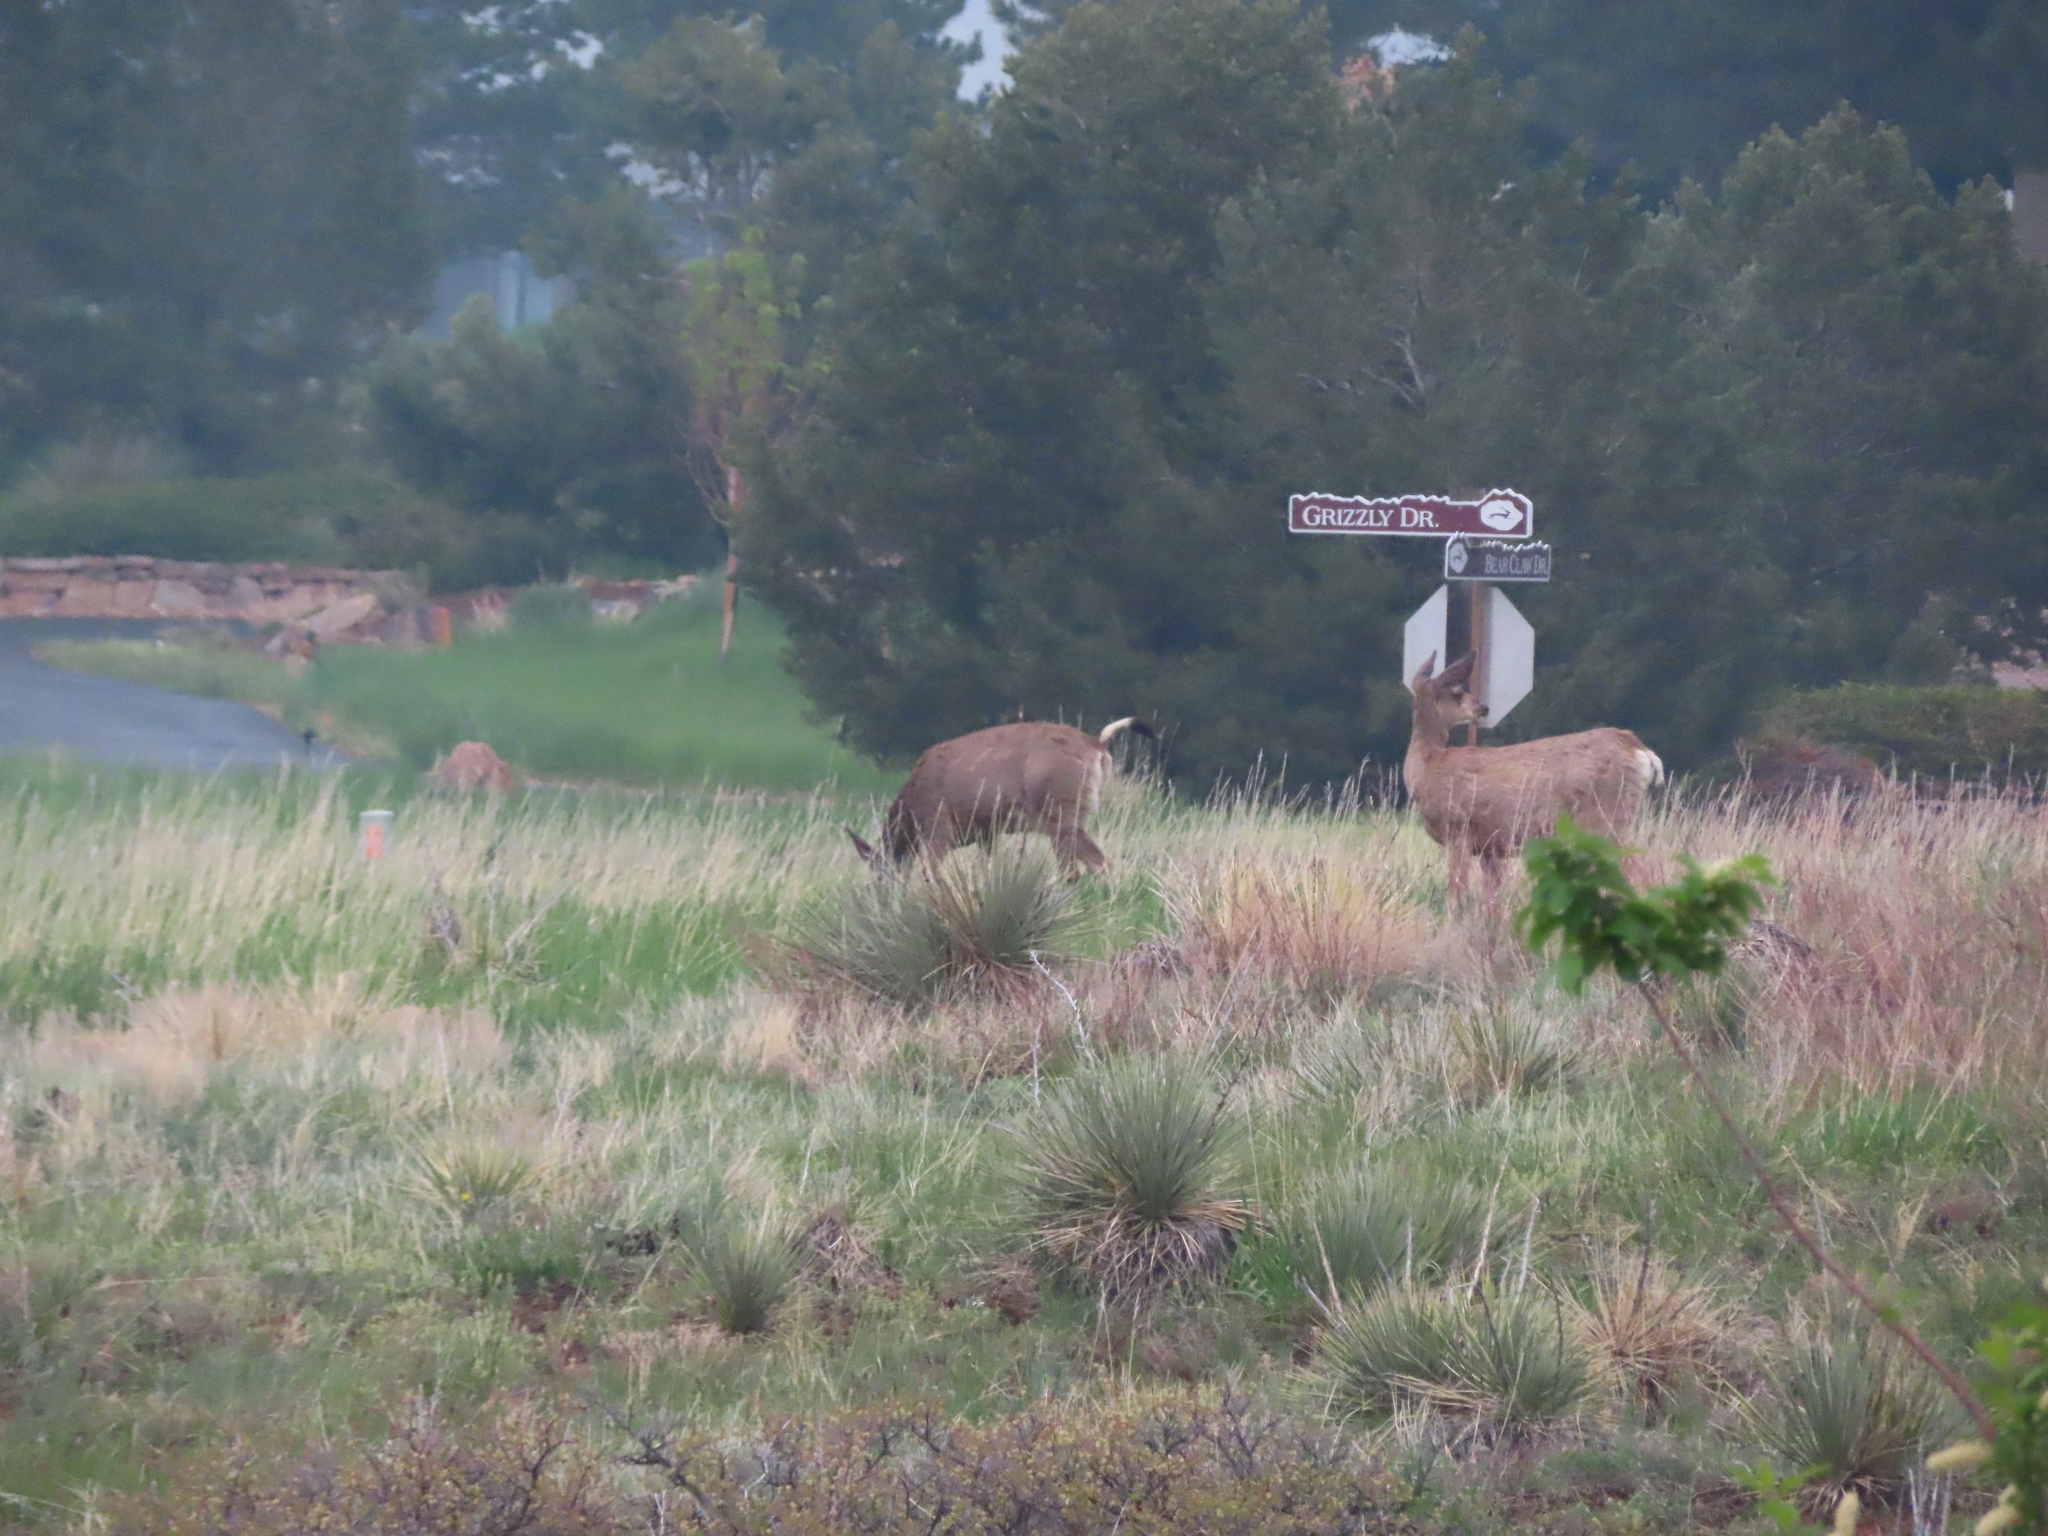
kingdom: Animalia
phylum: Chordata
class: Mammalia
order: Artiodactyla
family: Cervidae
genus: Odocoileus
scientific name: Odocoileus hemionus
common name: Mule deer
